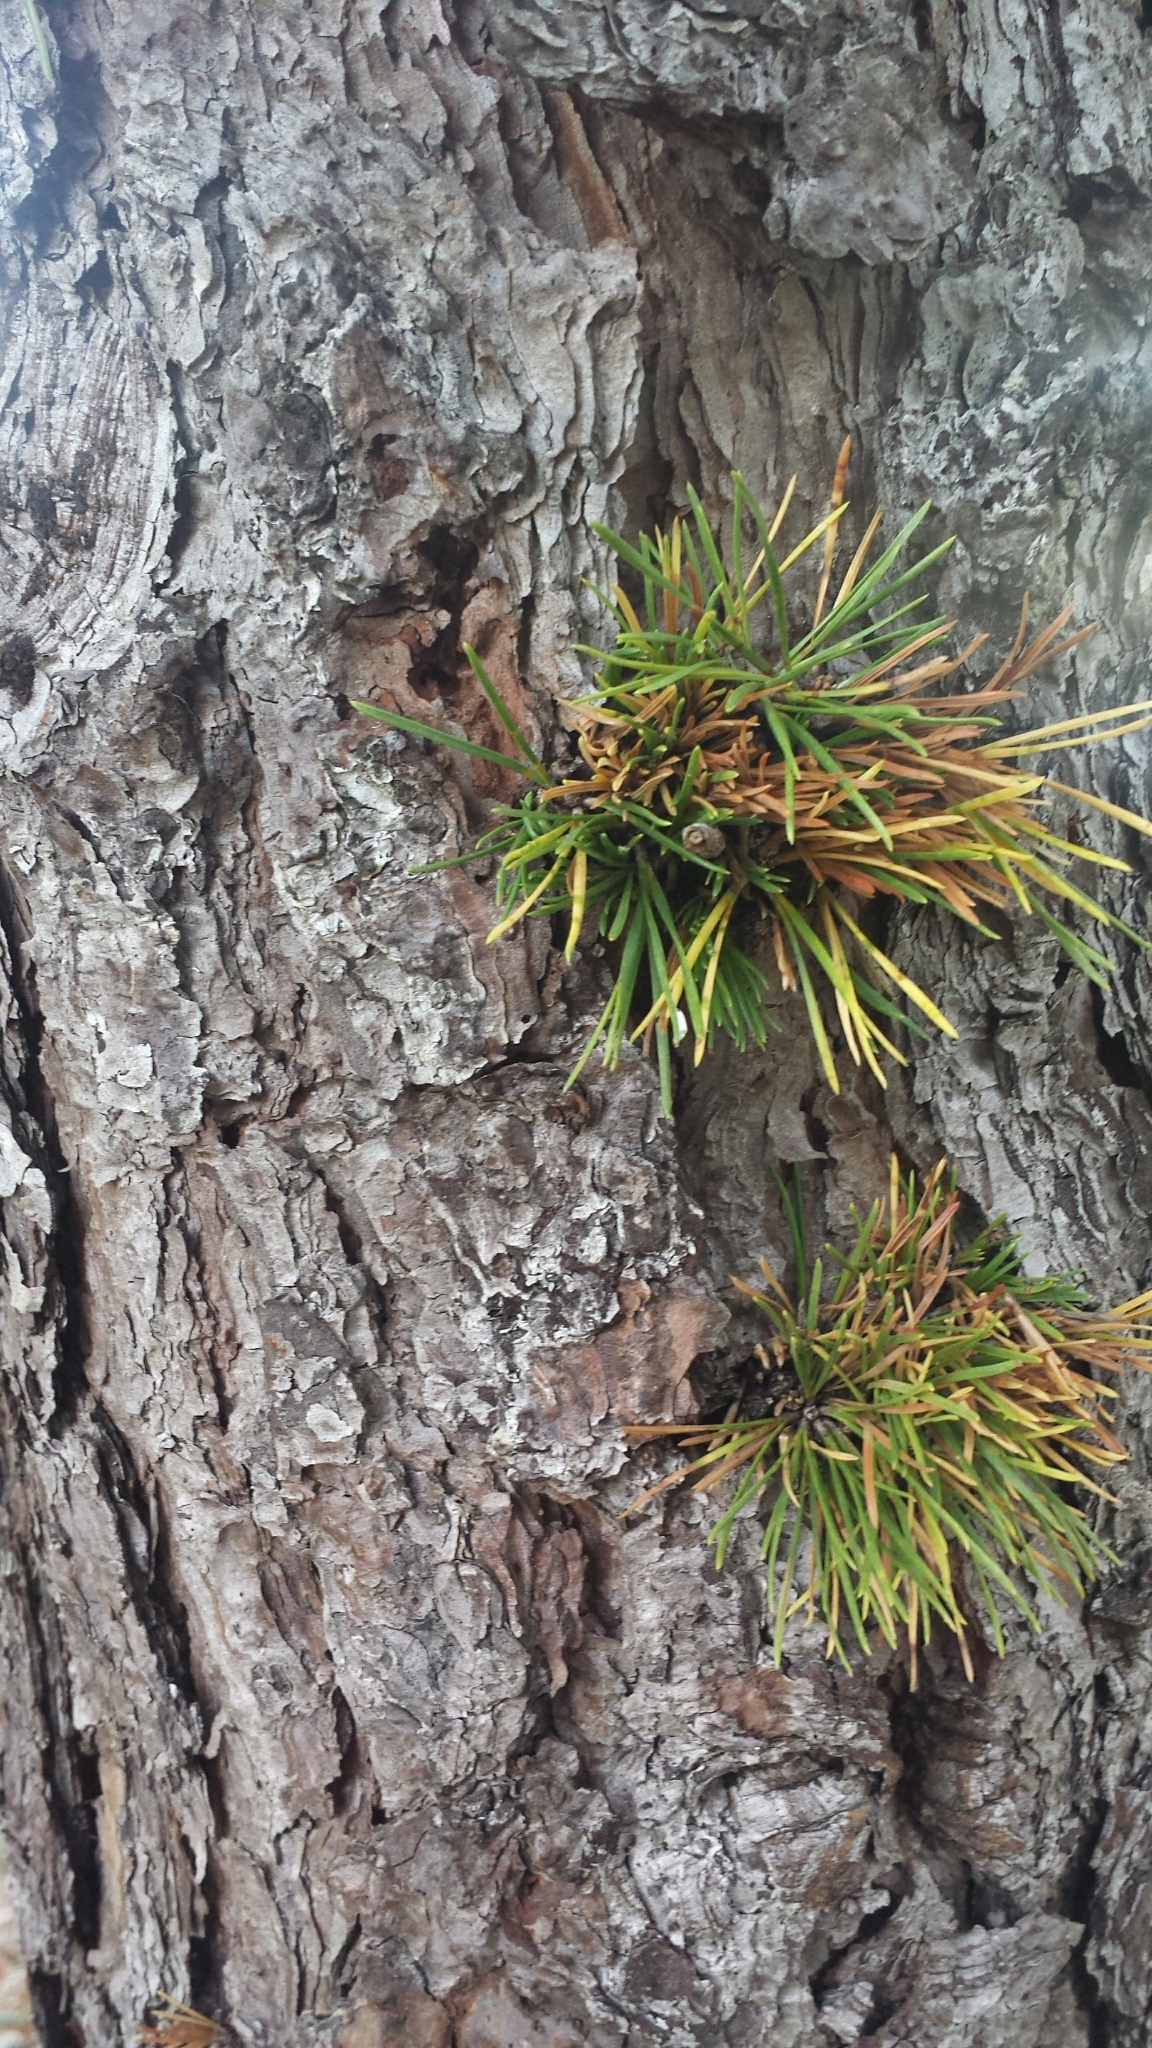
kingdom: Plantae
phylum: Tracheophyta
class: Pinopsida
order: Pinales
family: Pinaceae
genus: Pinus
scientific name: Pinus rigida
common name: Pitch pine
